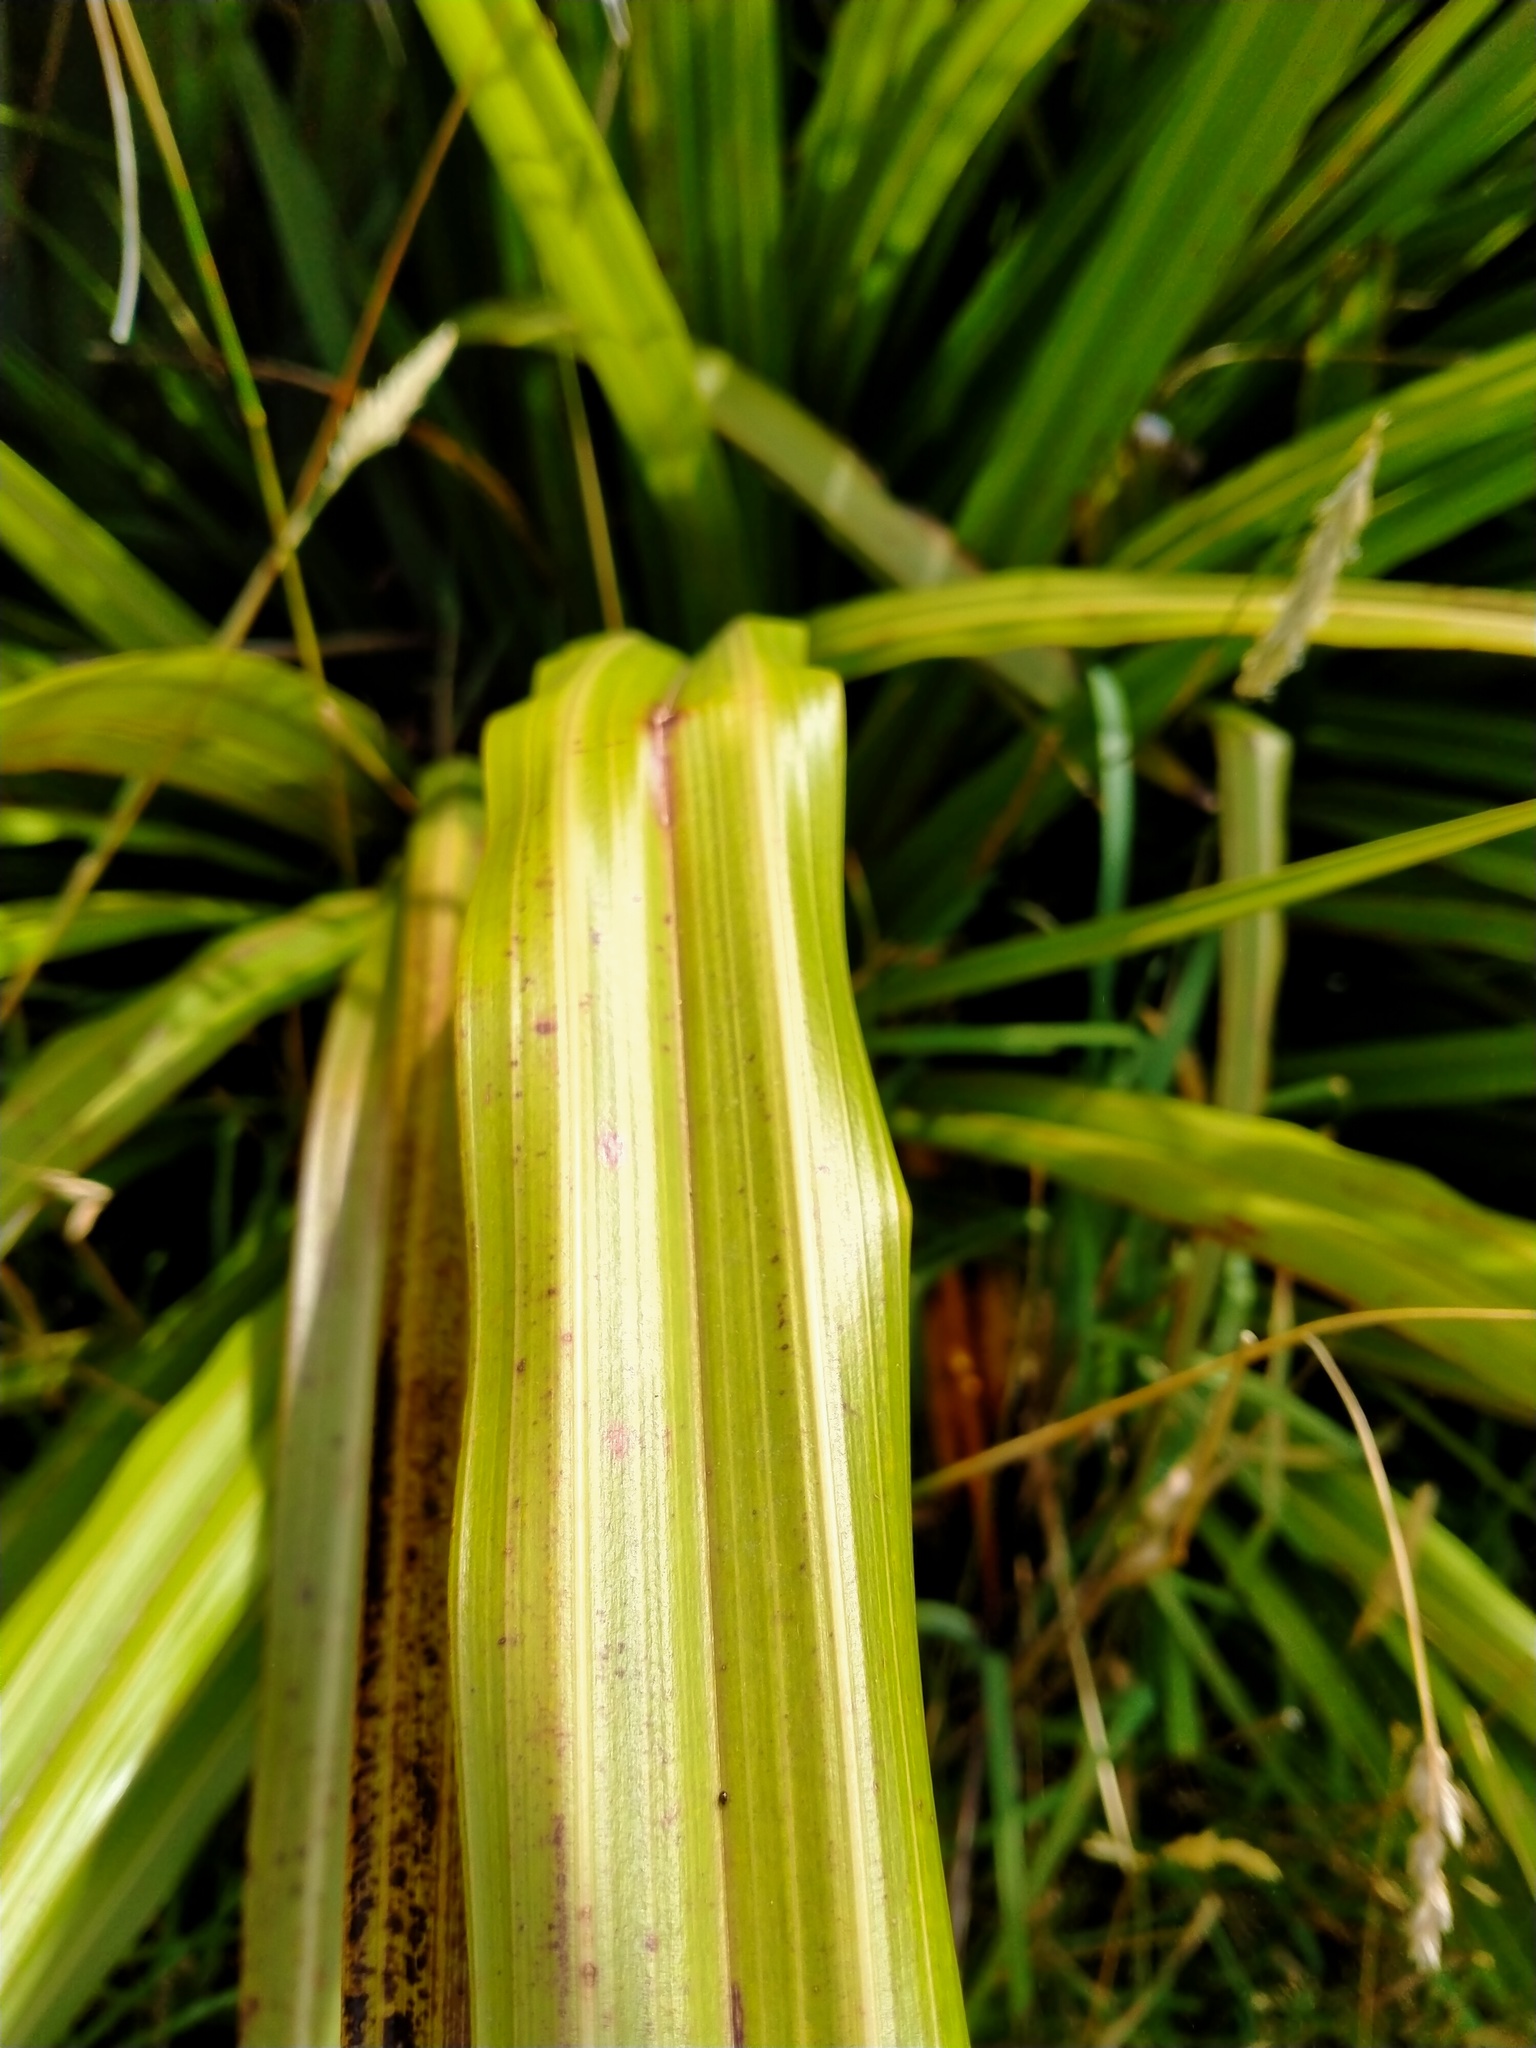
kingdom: Plantae
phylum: Tracheophyta
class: Liliopsida
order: Asparagales
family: Asteliaceae
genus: Astelia
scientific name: Astelia fragrans
